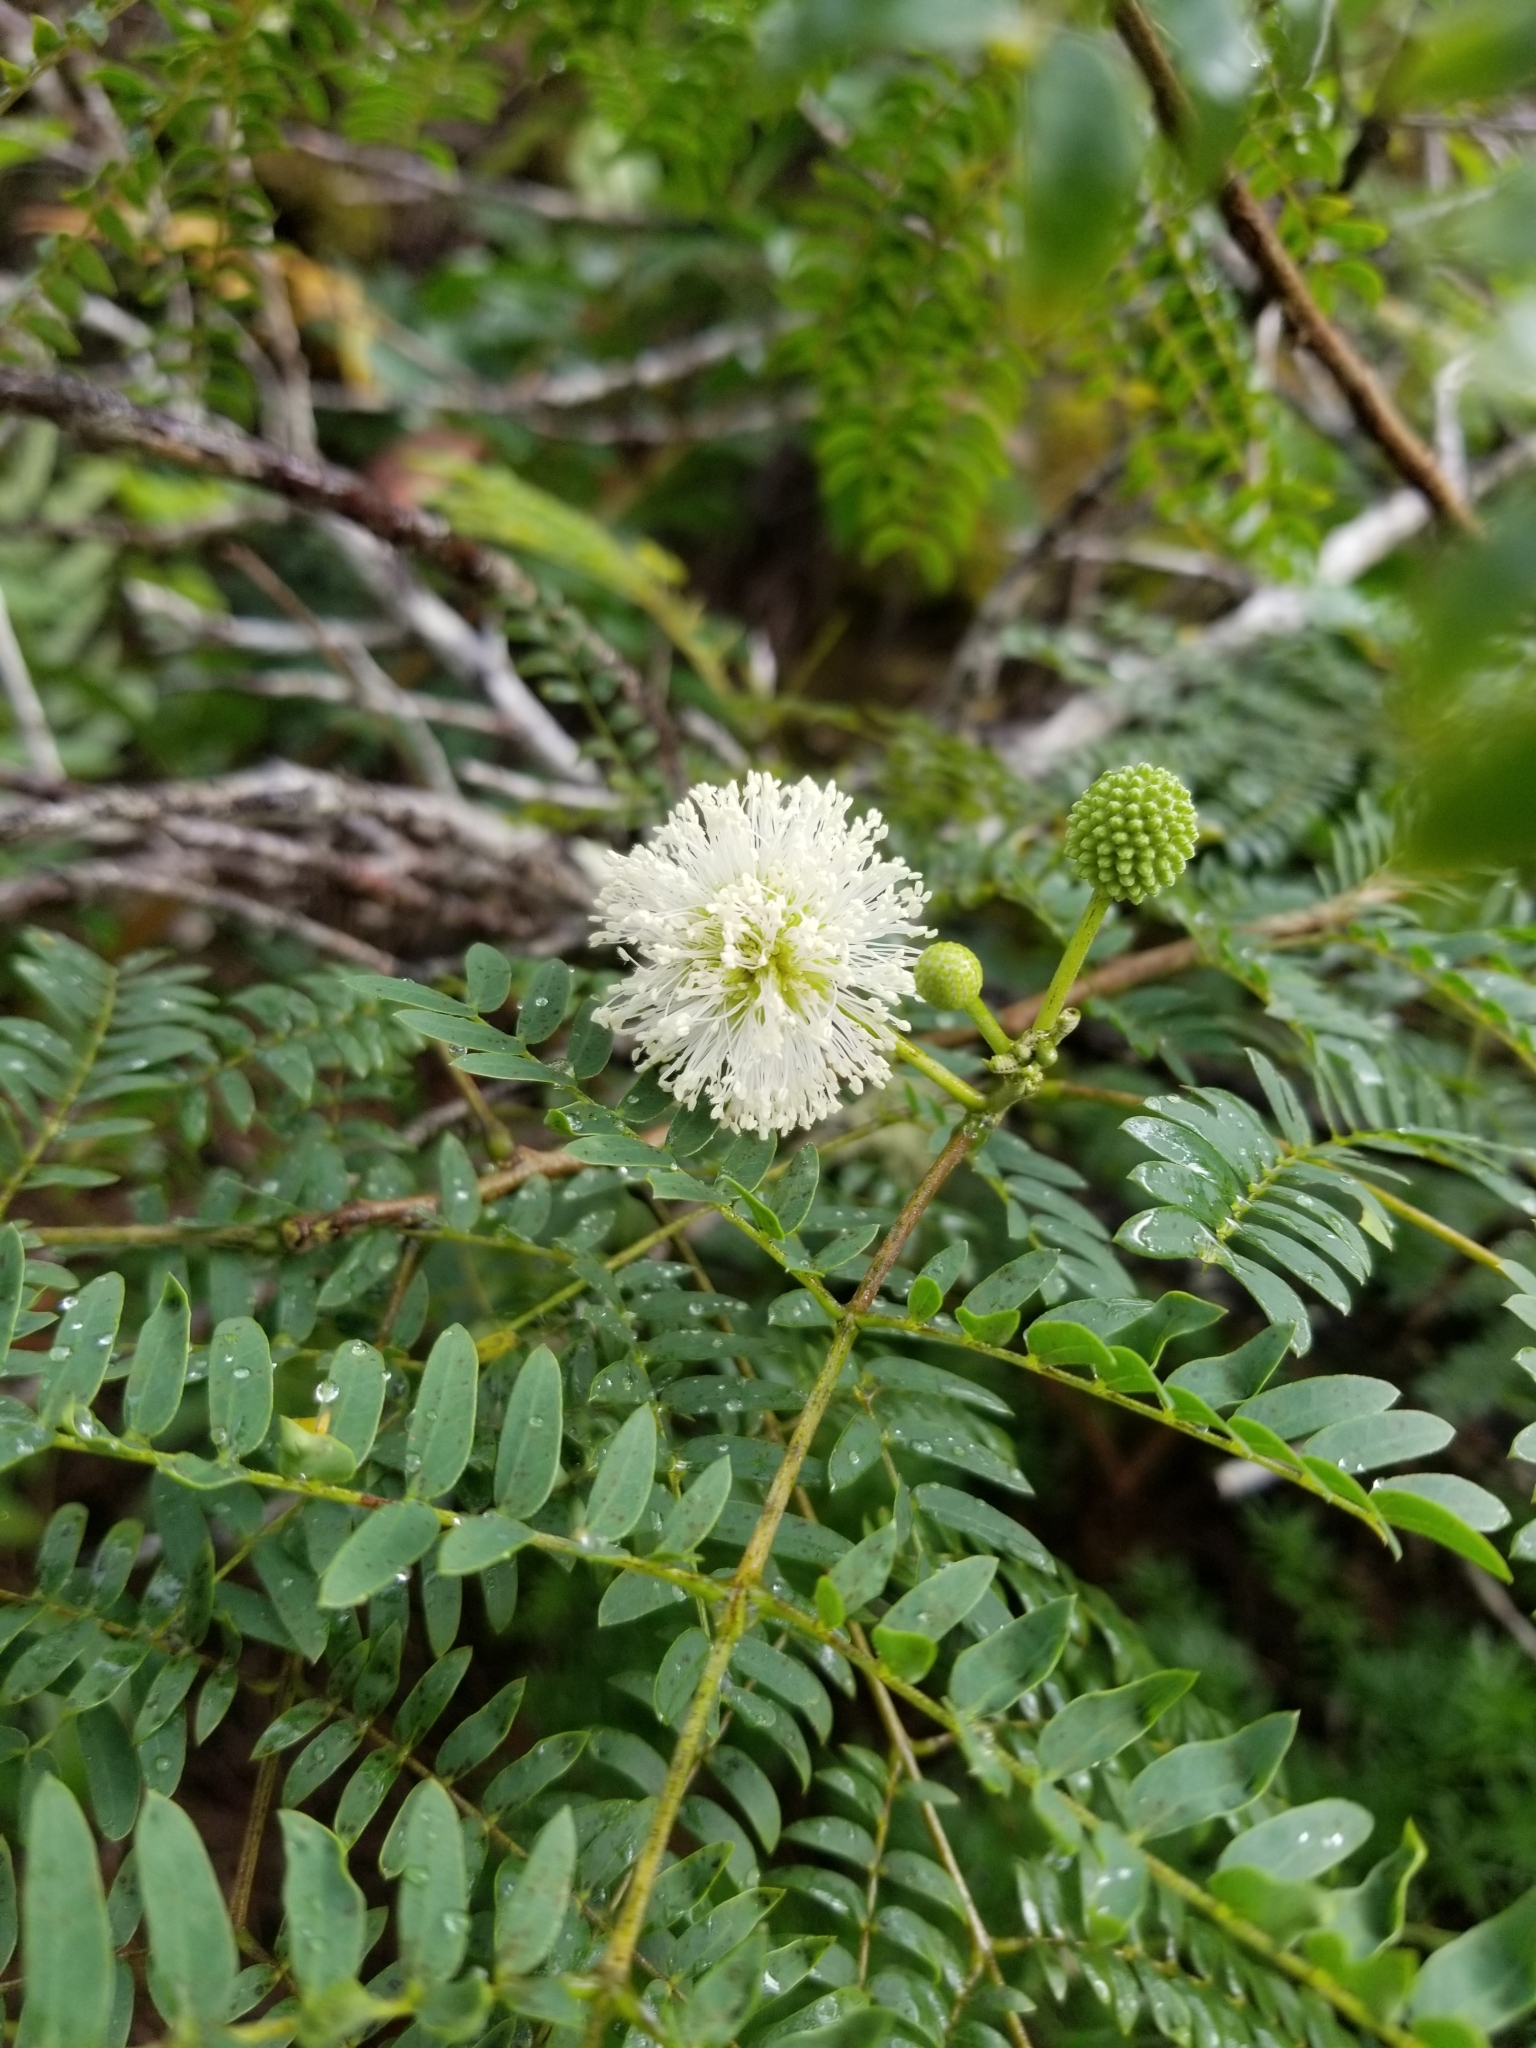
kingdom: Plantae
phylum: Tracheophyta
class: Magnoliopsida
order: Fabales
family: Fabaceae
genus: Leucaena
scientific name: Leucaena leucocephala
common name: White leadtree
